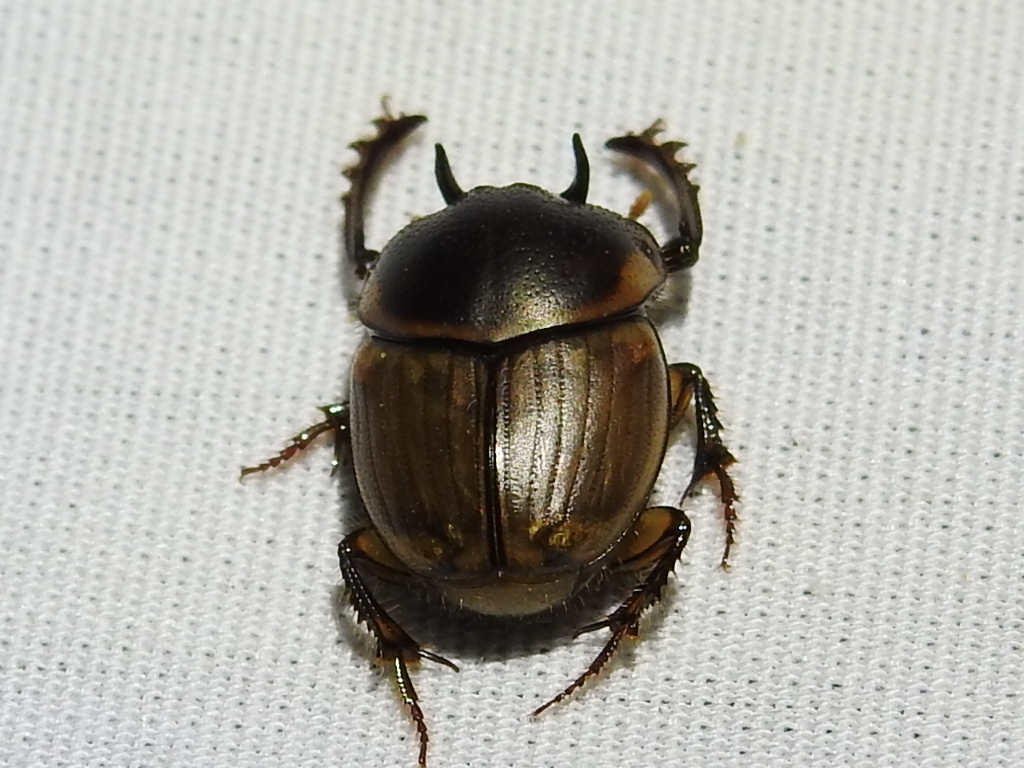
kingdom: Animalia
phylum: Arthropoda
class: Insecta
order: Coleoptera
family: Scarabaeidae
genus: Digitonthophagus
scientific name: Digitonthophagus gazella
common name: Brown dung beetle
